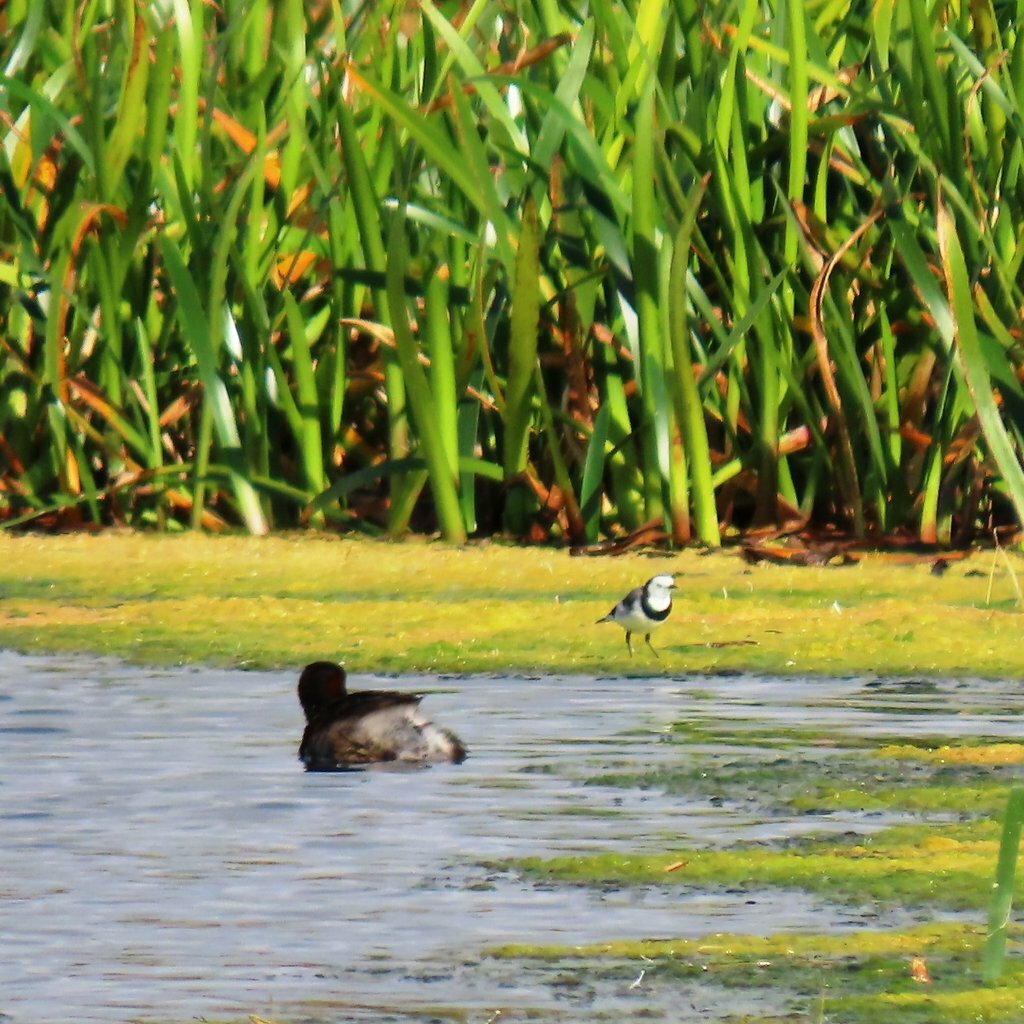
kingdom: Animalia
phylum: Chordata
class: Aves
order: Passeriformes
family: Meliphagidae
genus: Epthianura
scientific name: Epthianura albifrons
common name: White-fronted chat
